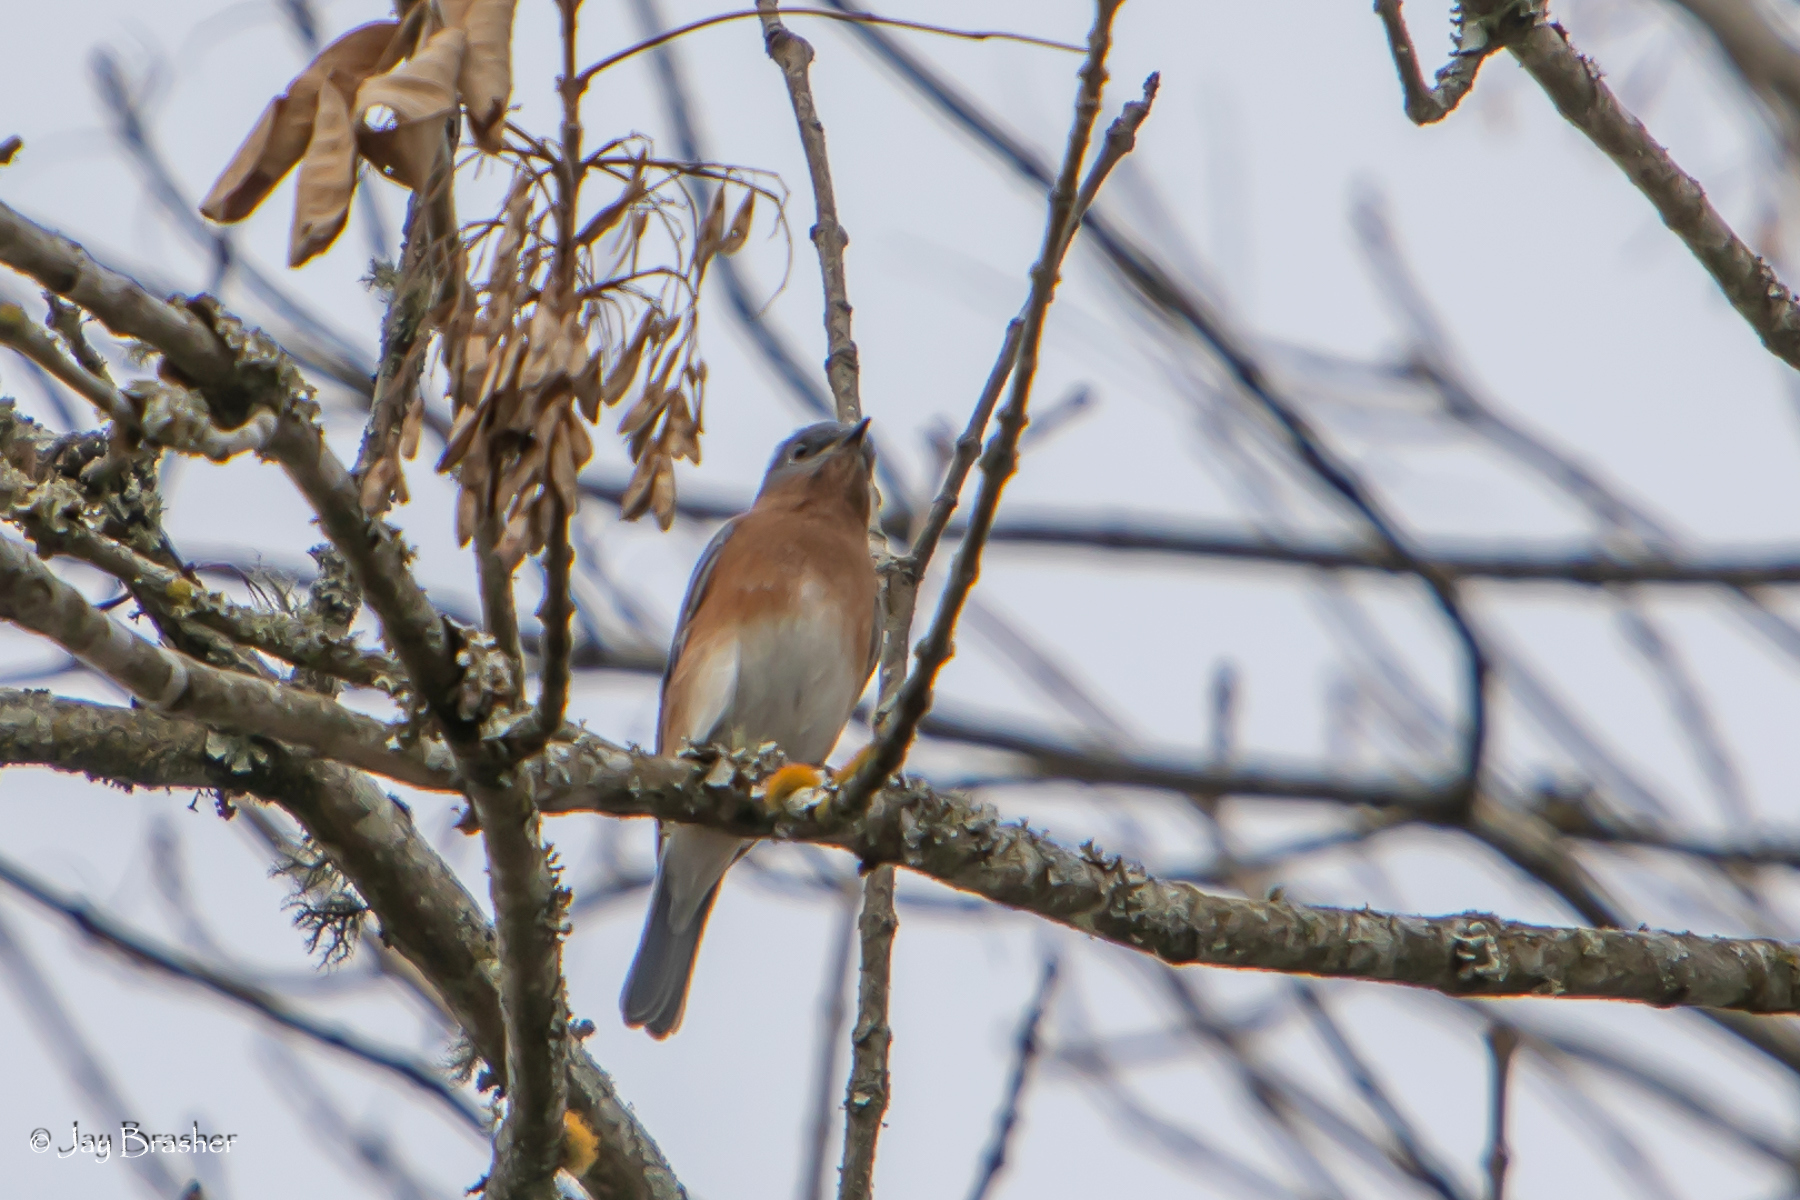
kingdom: Animalia
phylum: Chordata
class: Aves
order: Passeriformes
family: Turdidae
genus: Sialia
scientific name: Sialia sialis
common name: Eastern bluebird
